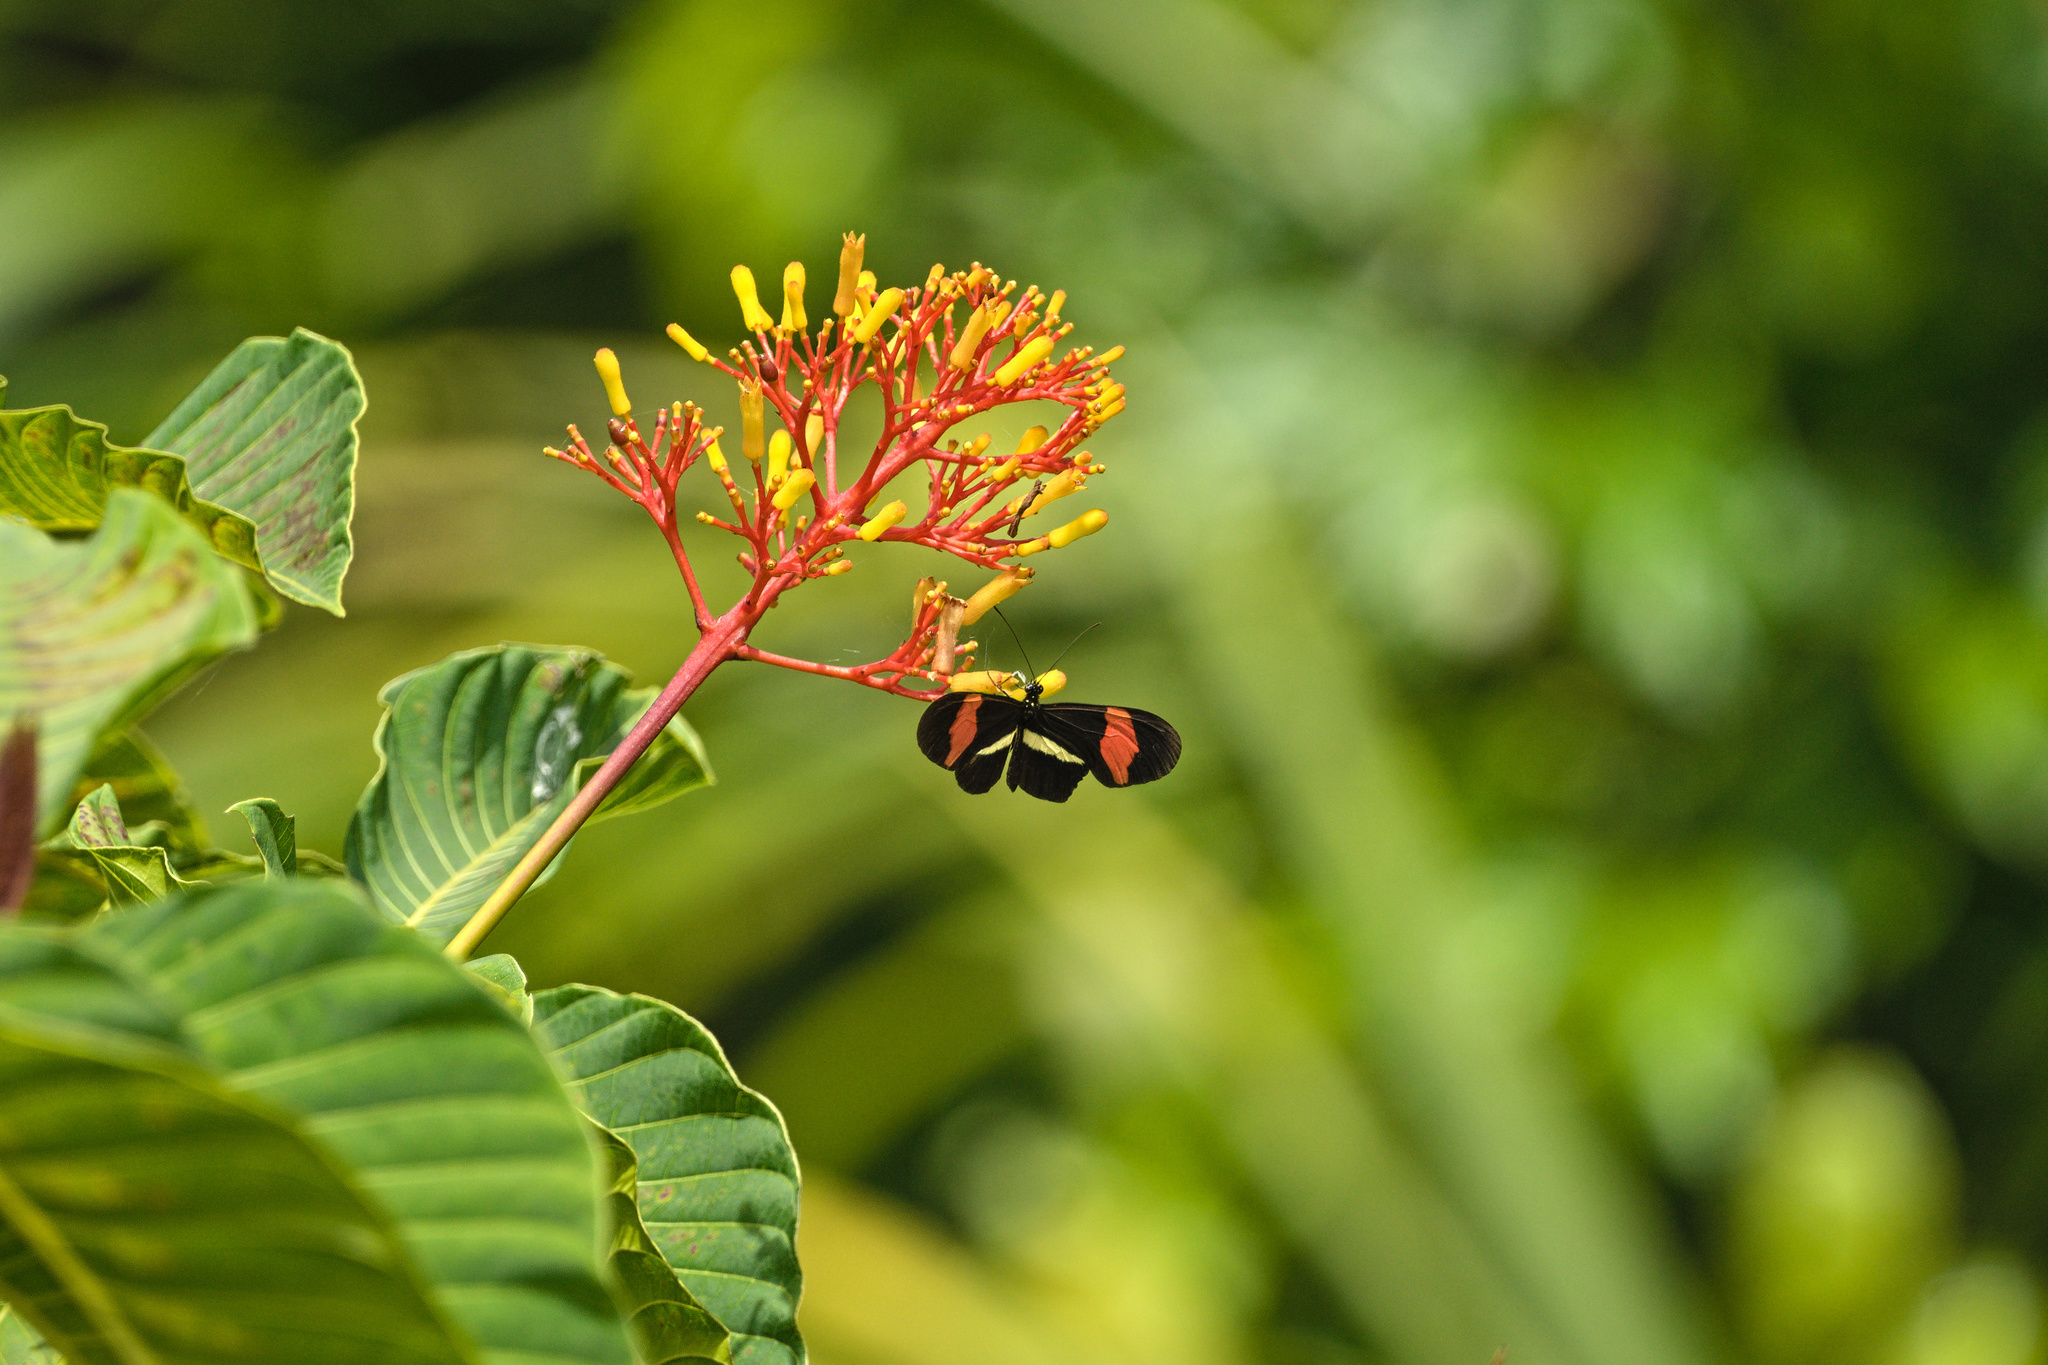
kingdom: Animalia
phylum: Arthropoda
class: Insecta
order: Lepidoptera
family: Nymphalidae
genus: Tirumala
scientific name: Tirumala petiverana
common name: Blue monarch
